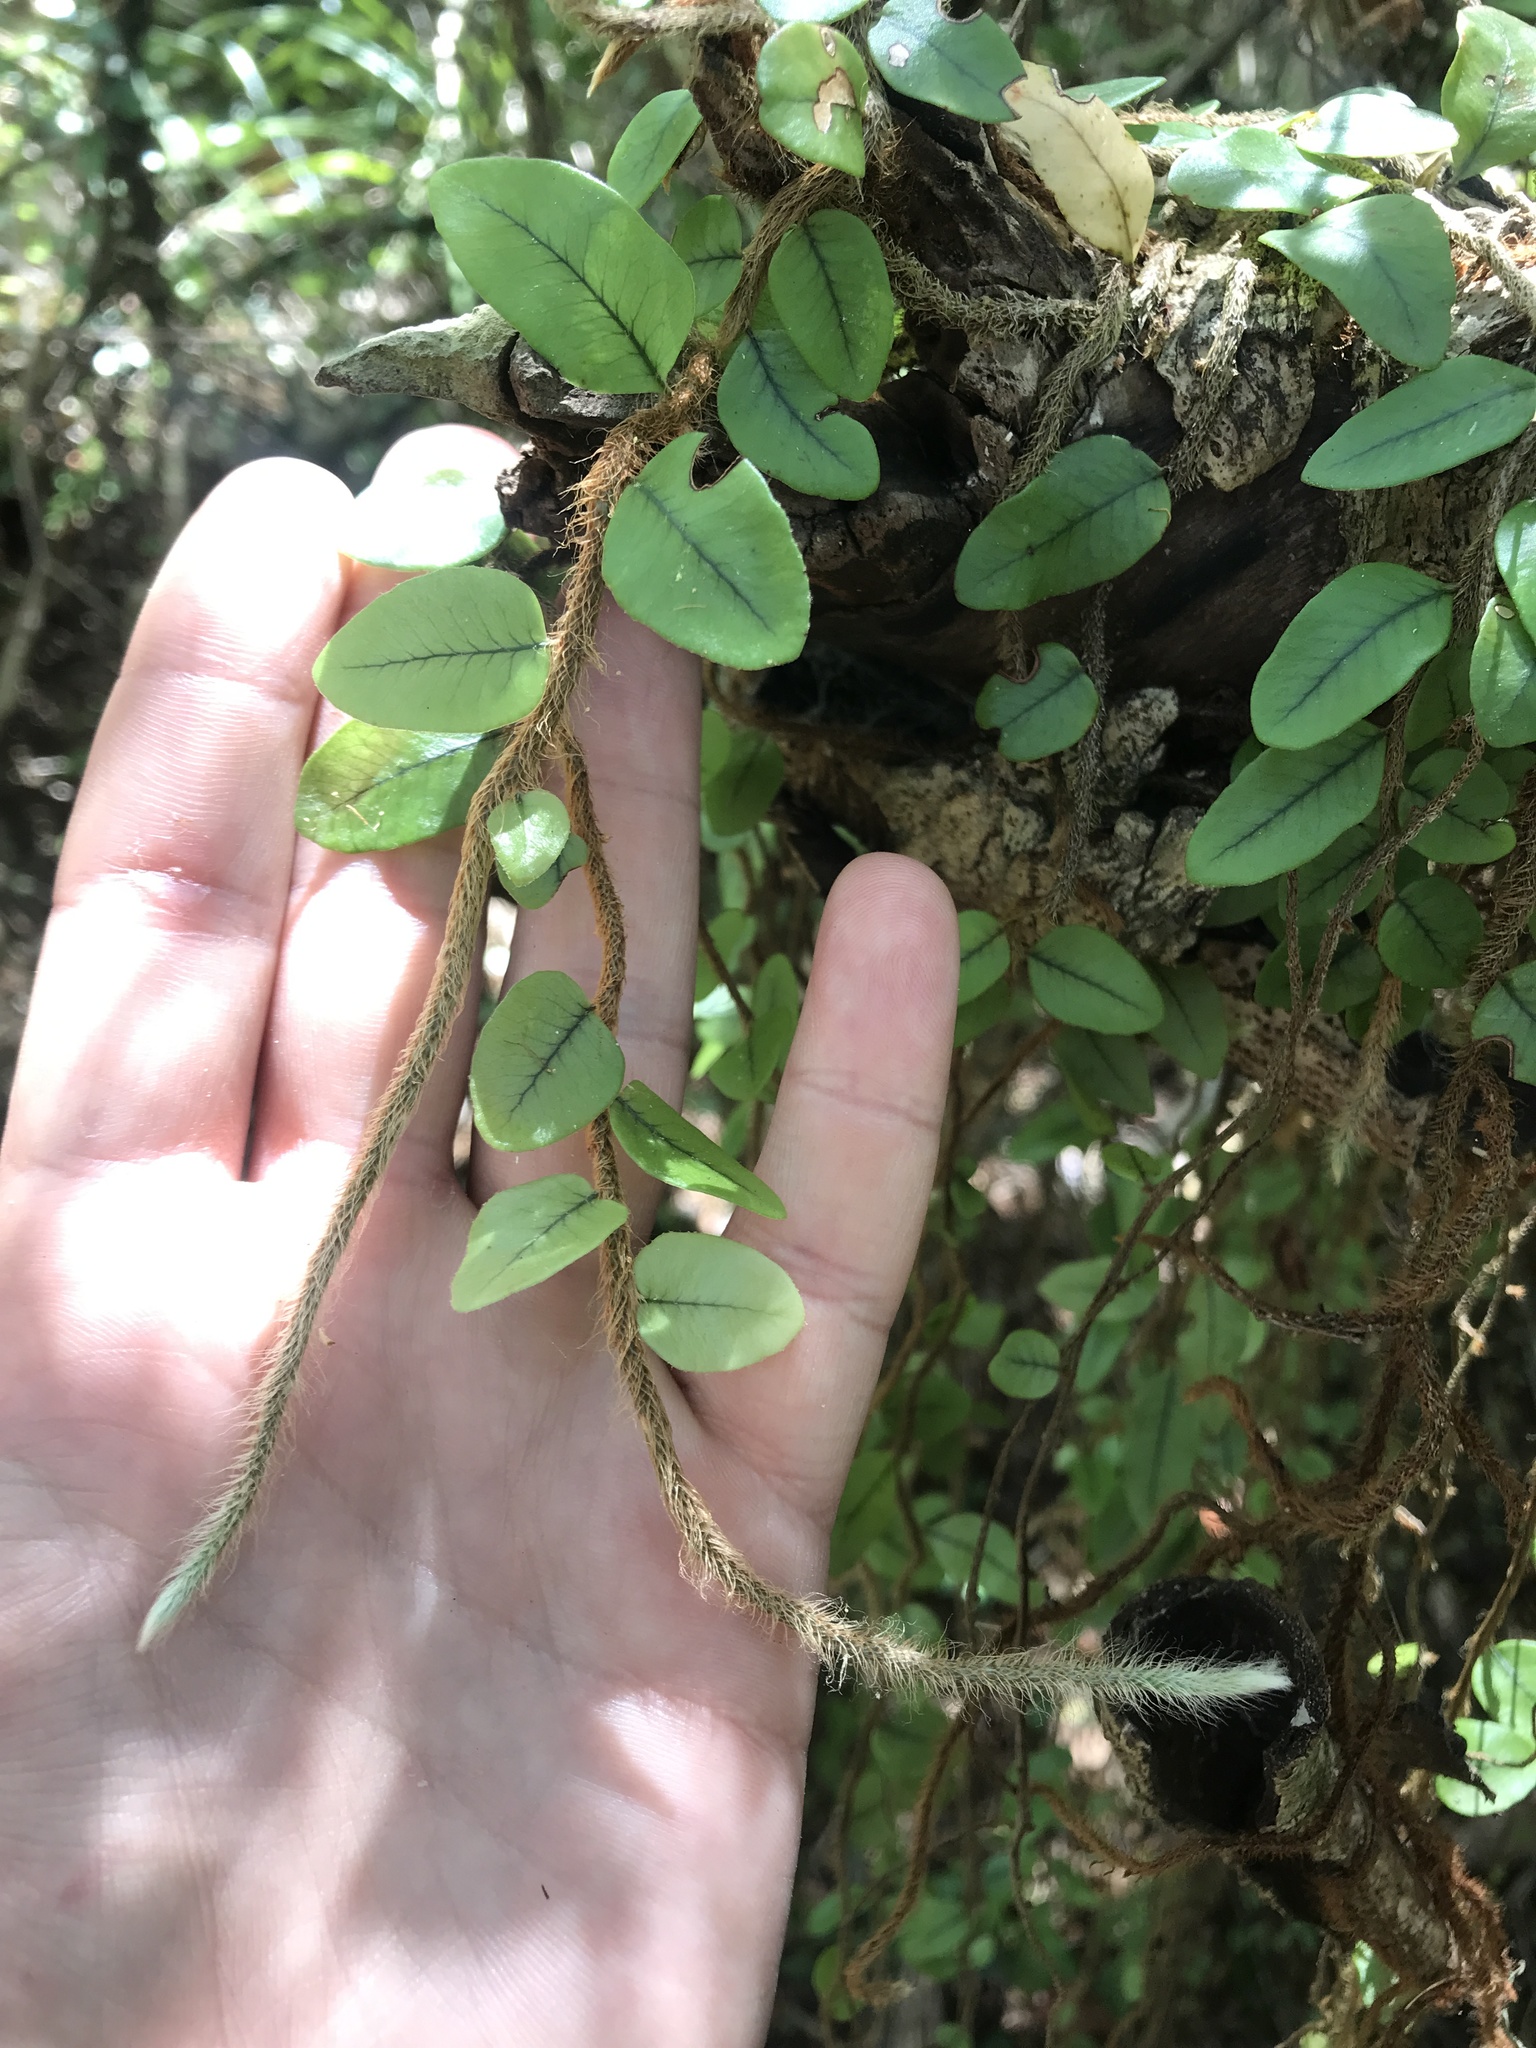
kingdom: Plantae
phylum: Tracheophyta
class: Polypodiopsida
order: Polypodiales
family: Polypodiaceae
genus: Microgramma
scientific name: Microgramma vaccinifolia
